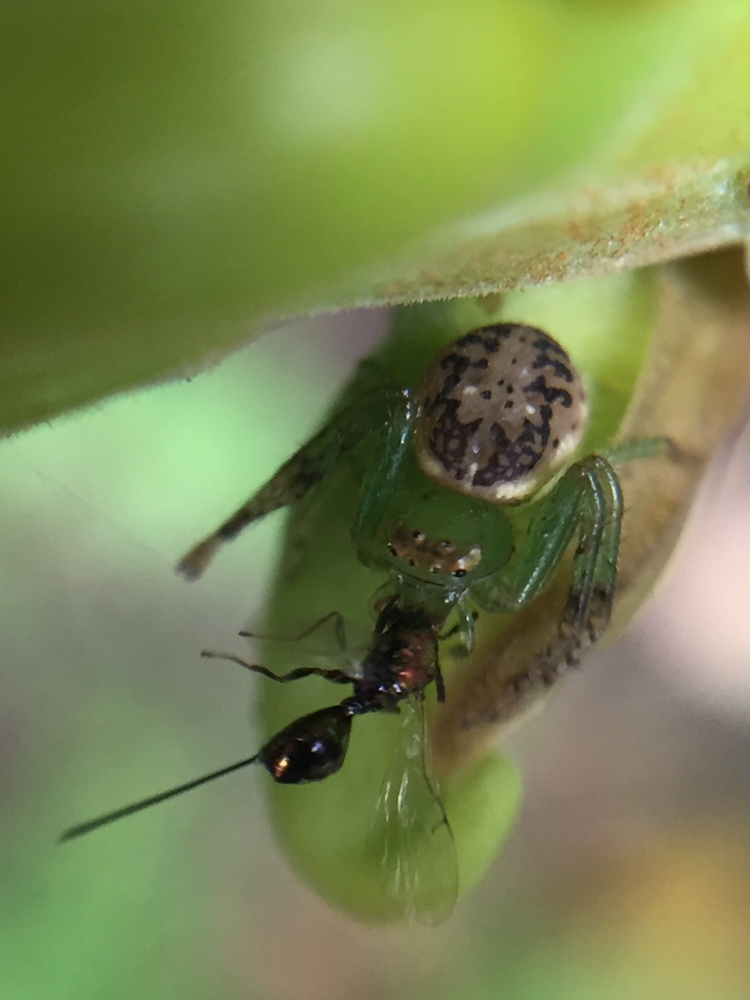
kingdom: Animalia
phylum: Arthropoda
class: Arachnida
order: Araneae
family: Thomisidae
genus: Diaea
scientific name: Diaea ambara
